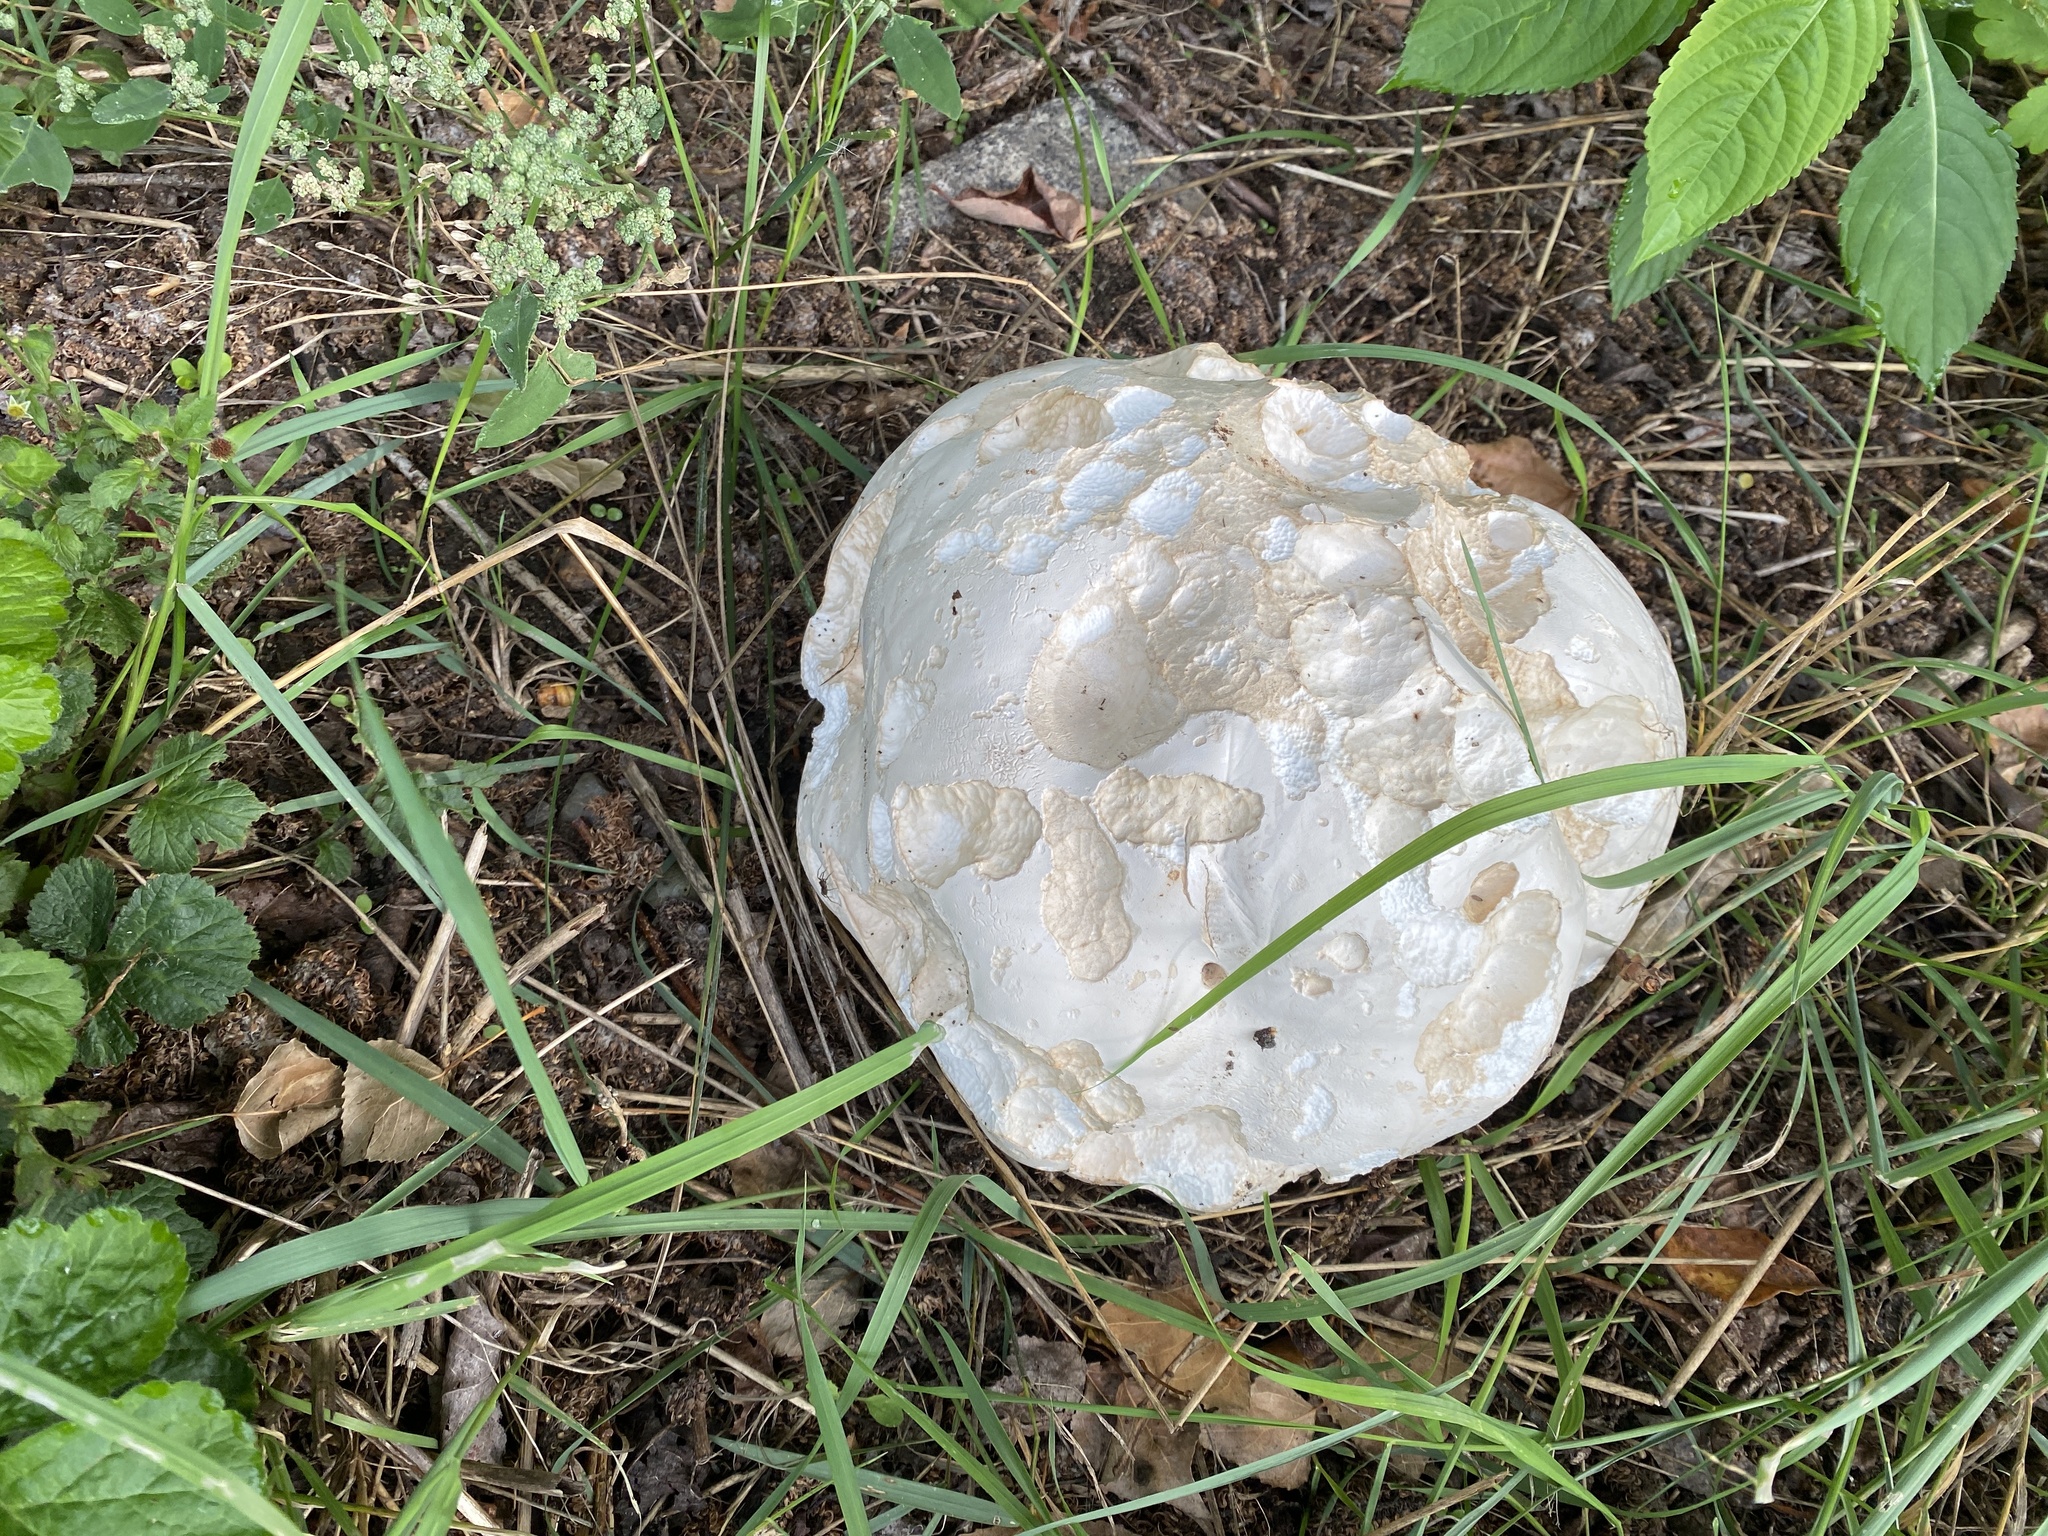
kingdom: Fungi
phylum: Basidiomycota
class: Agaricomycetes
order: Agaricales
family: Lycoperdaceae
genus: Calvatia
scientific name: Calvatia gigantea
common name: Giant puffball
